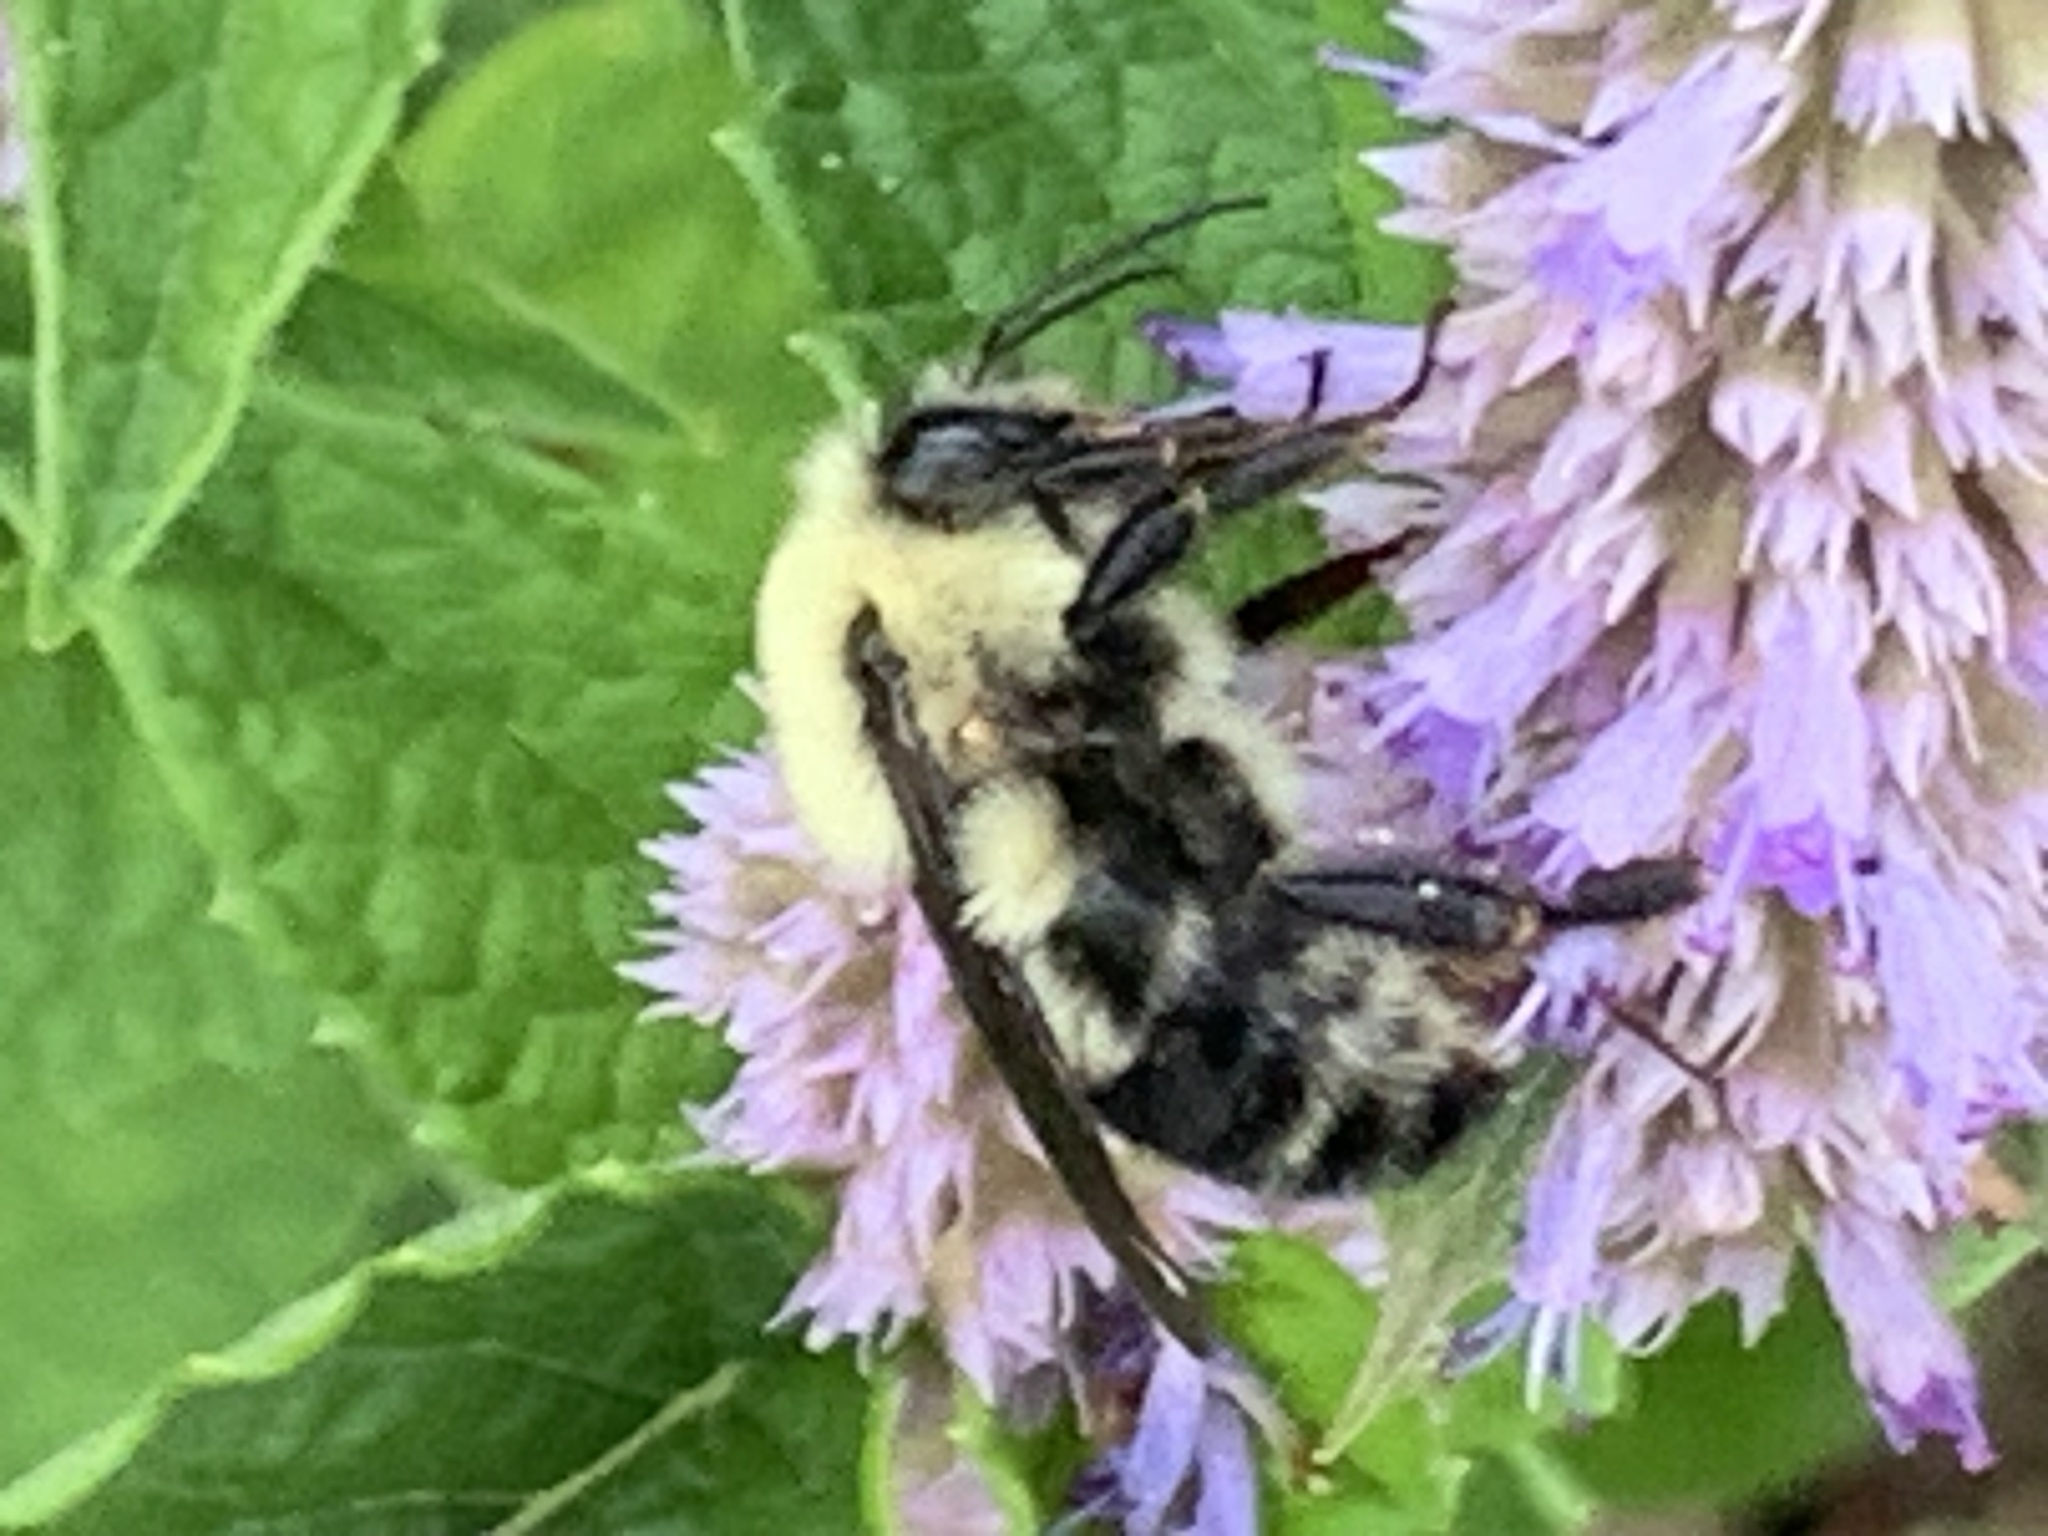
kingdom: Animalia
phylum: Arthropoda
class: Insecta
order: Hymenoptera
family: Apidae
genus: Bombus
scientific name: Bombus bimaculatus
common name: Two-spotted bumble bee
